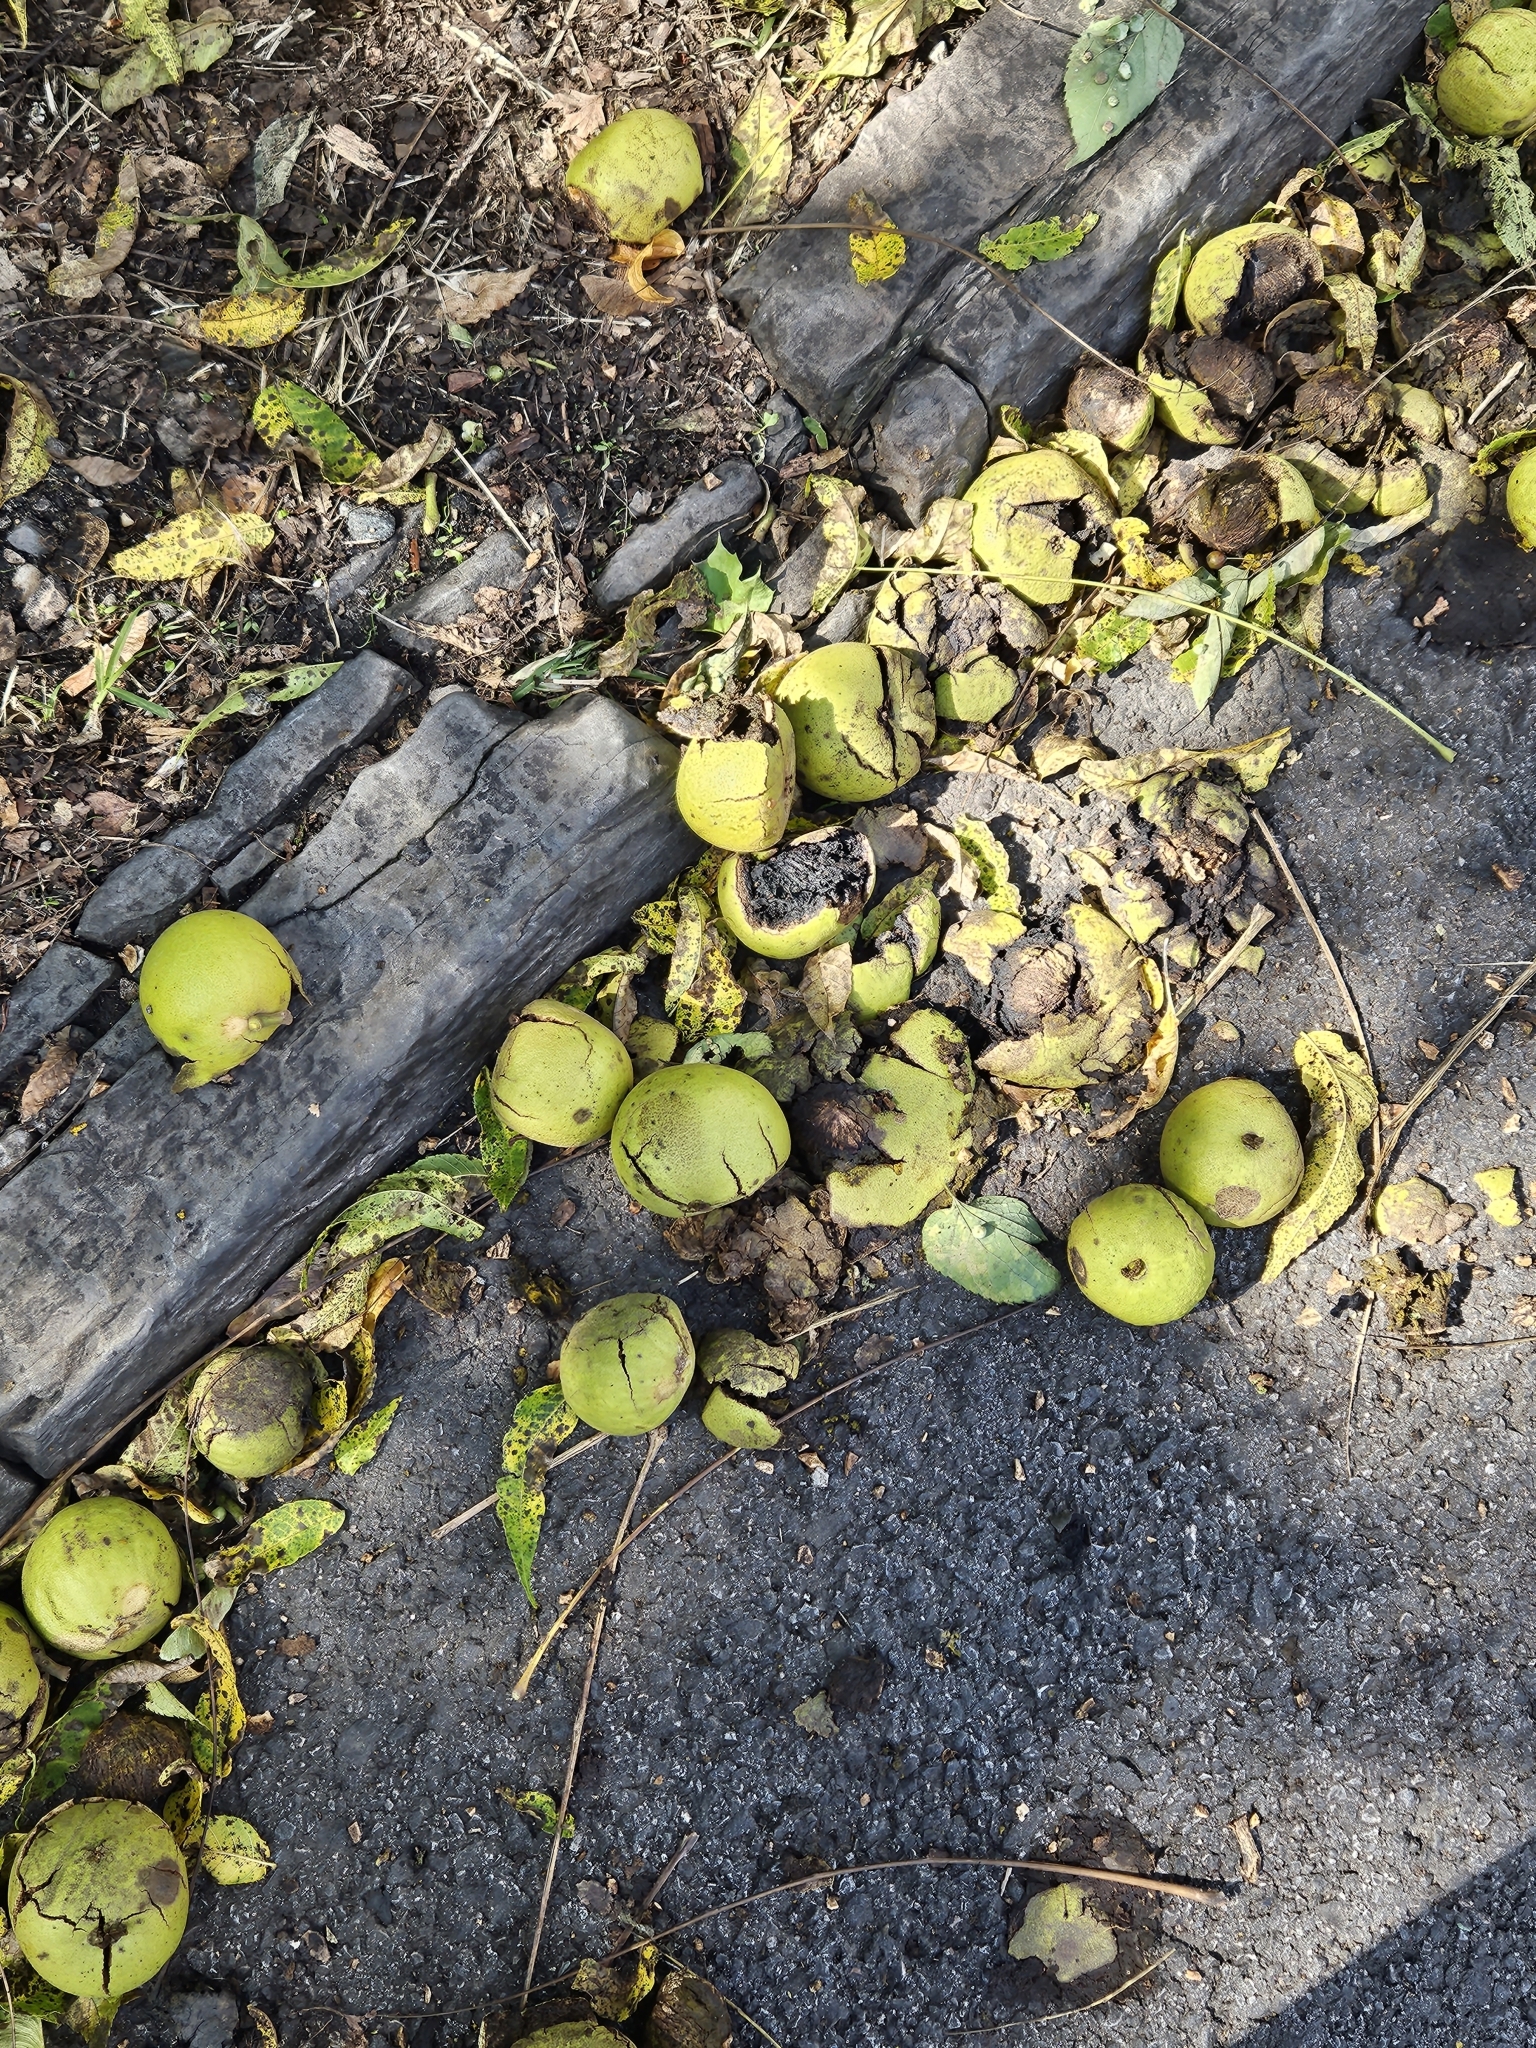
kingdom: Plantae
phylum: Tracheophyta
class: Magnoliopsida
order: Fagales
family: Juglandaceae
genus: Juglans
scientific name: Juglans nigra
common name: Black walnut
